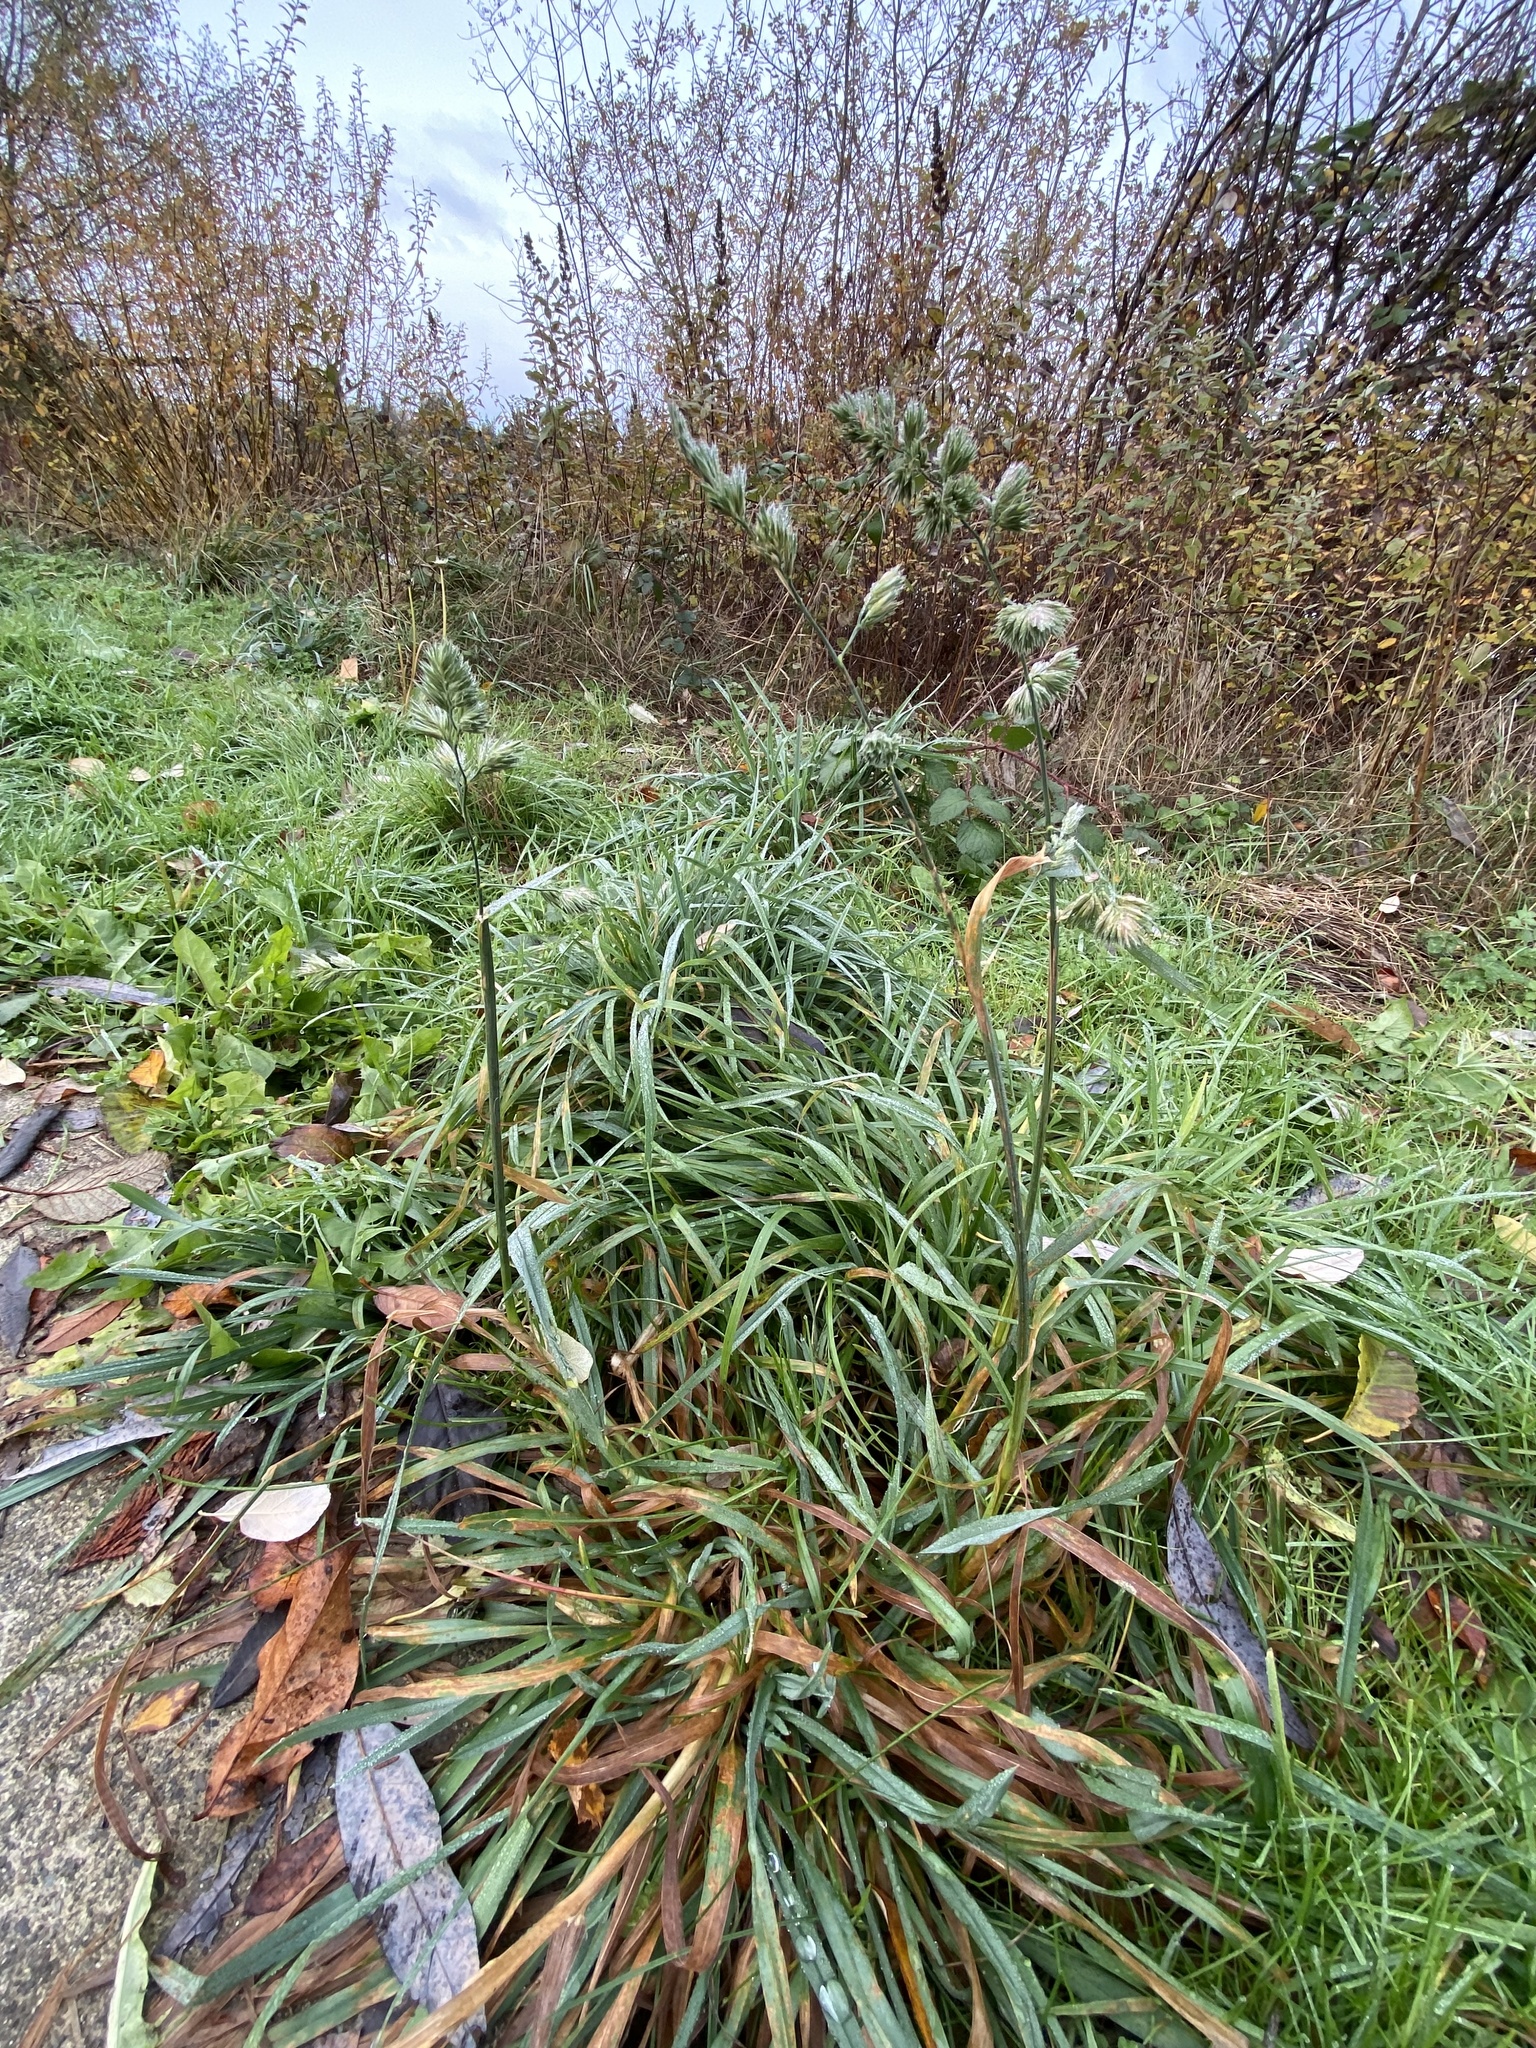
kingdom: Plantae
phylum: Tracheophyta
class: Liliopsida
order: Poales
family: Poaceae
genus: Dactylis
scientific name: Dactylis glomerata
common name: Orchardgrass
